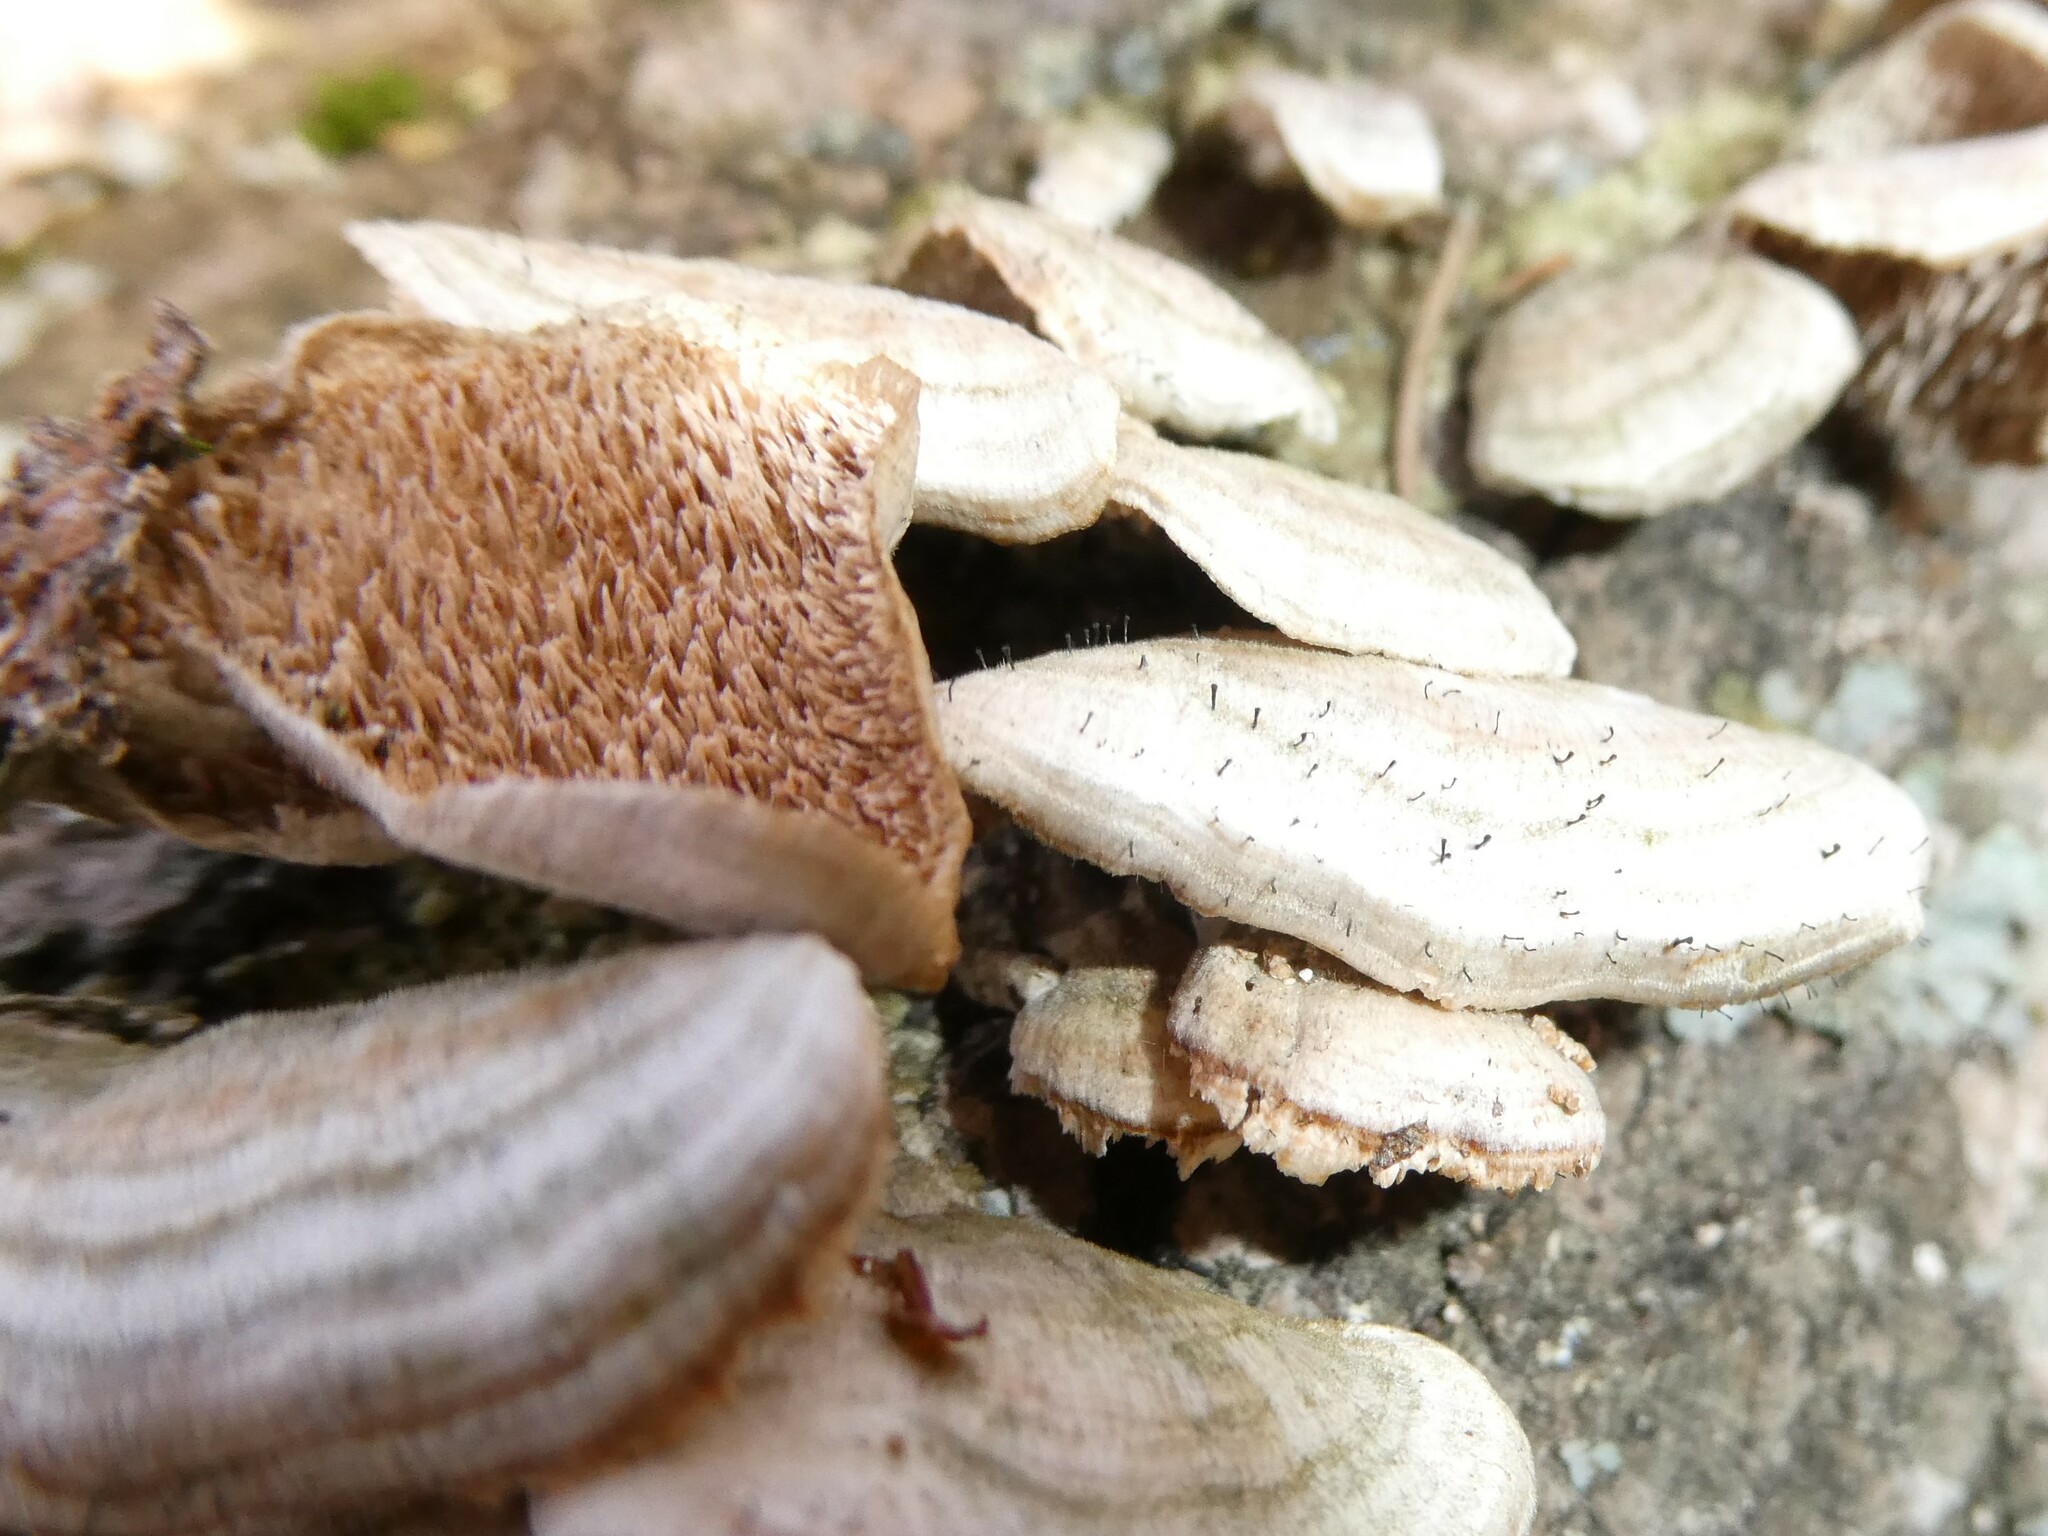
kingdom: Fungi
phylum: Ascomycota
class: Eurotiomycetes
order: Mycocaliciales
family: Mycocaliciaceae
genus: Phaeocalicium
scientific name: Phaeocalicium polyporaeum
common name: Fairy pins
